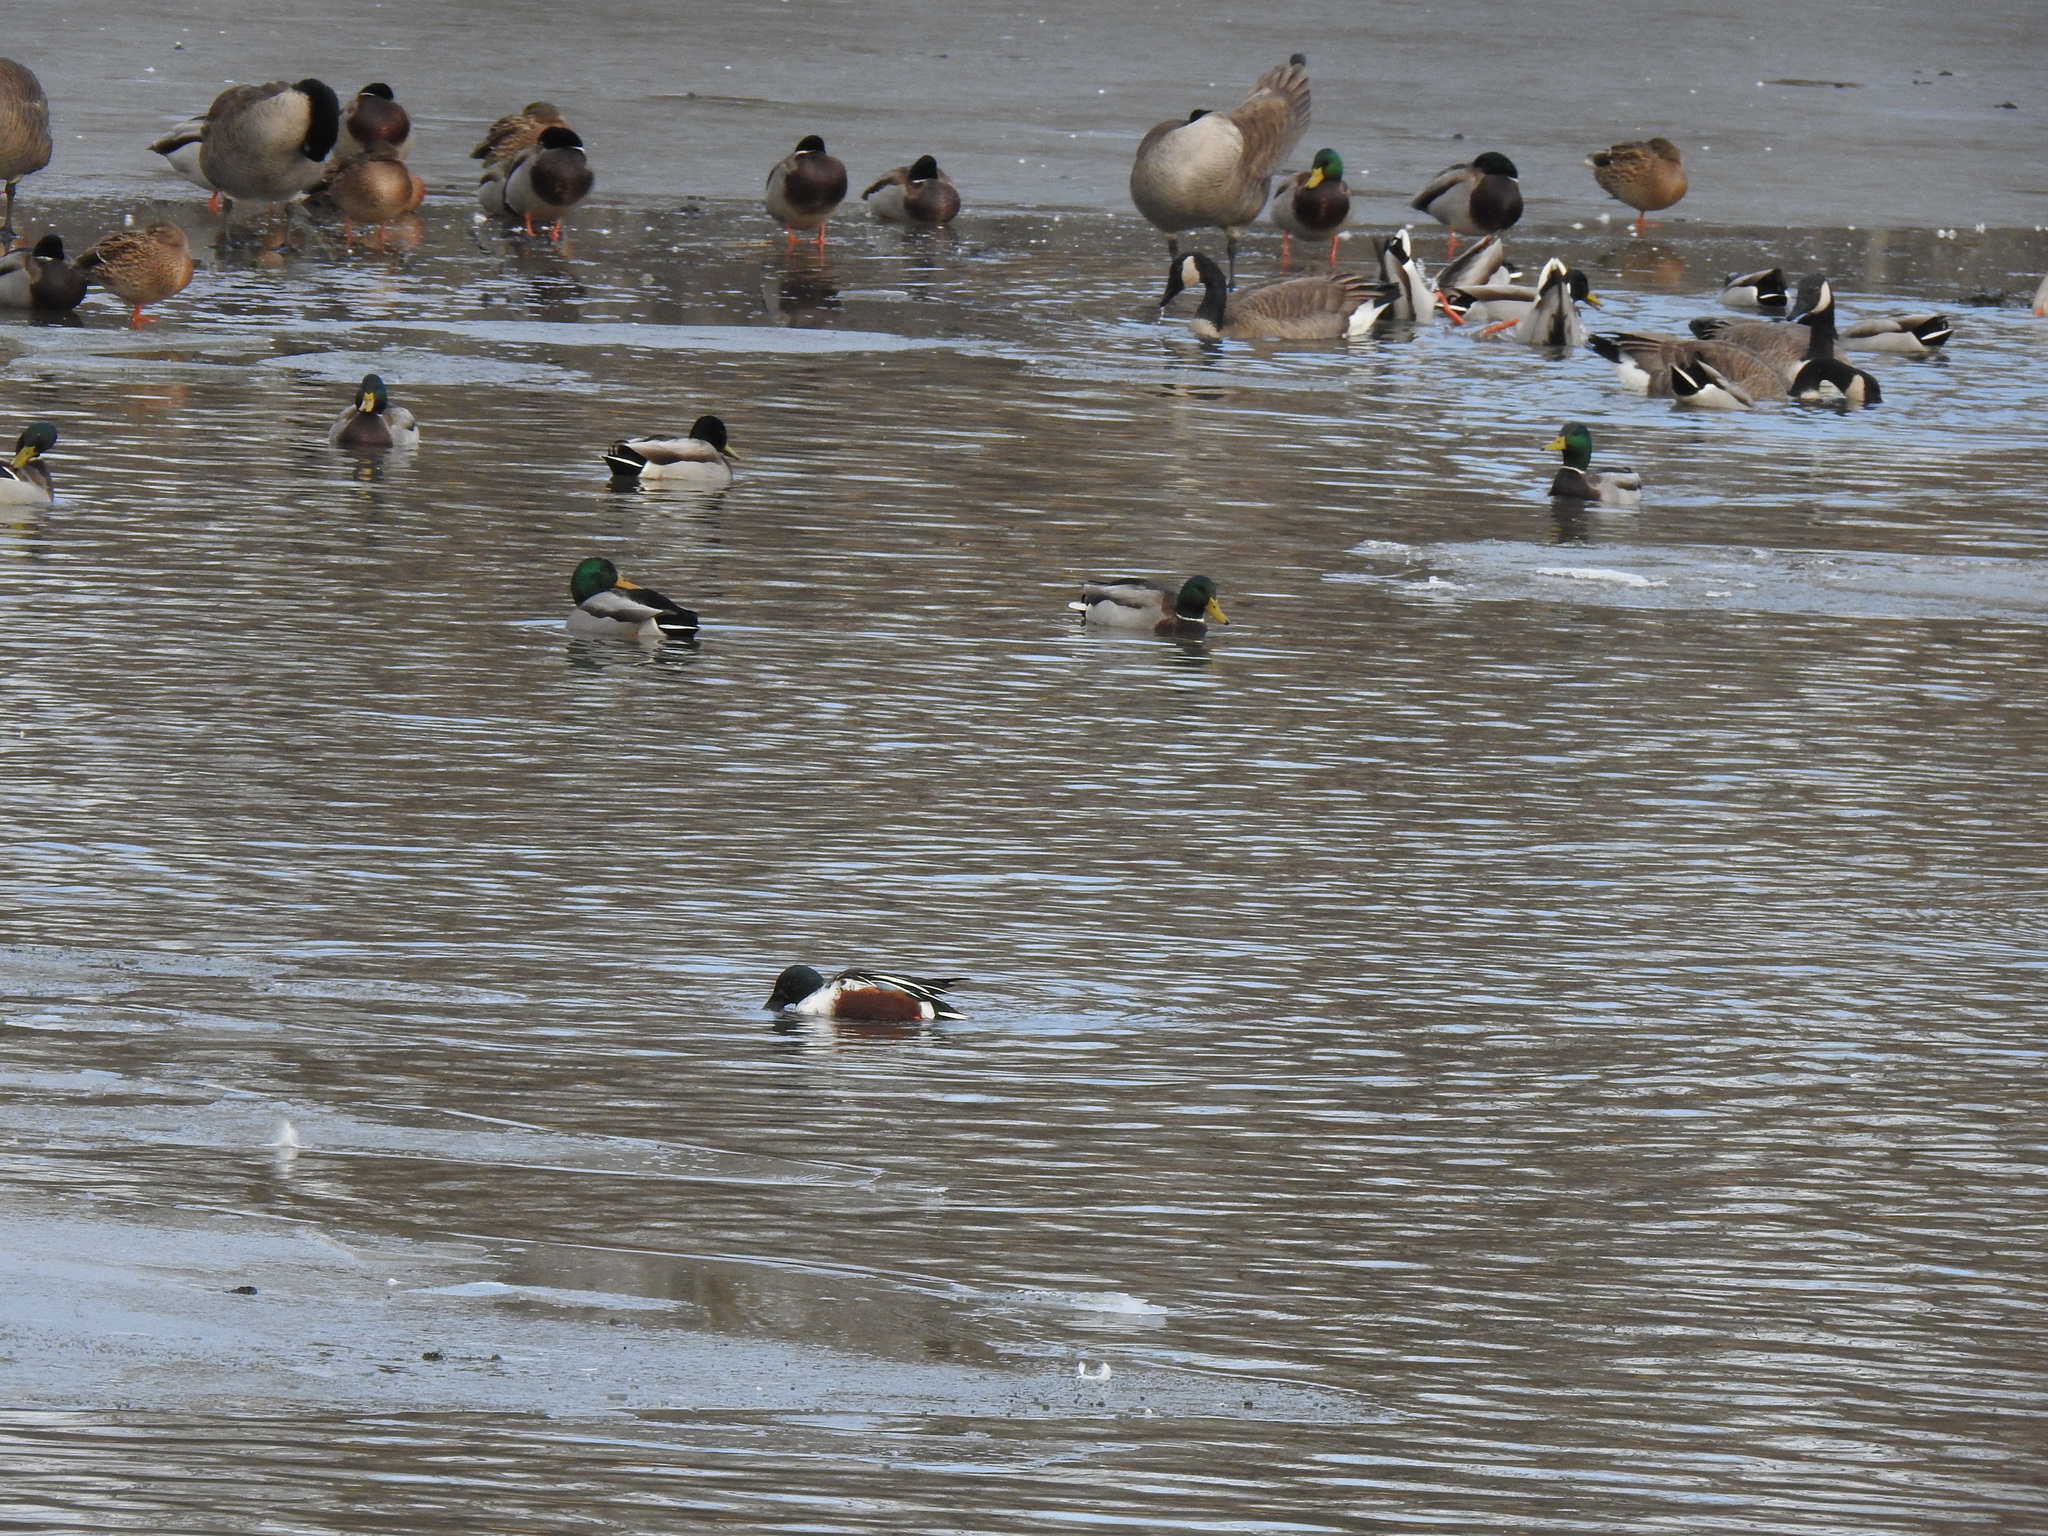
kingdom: Animalia
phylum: Chordata
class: Aves
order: Anseriformes
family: Anatidae
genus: Spatula
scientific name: Spatula clypeata
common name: Northern shoveler
